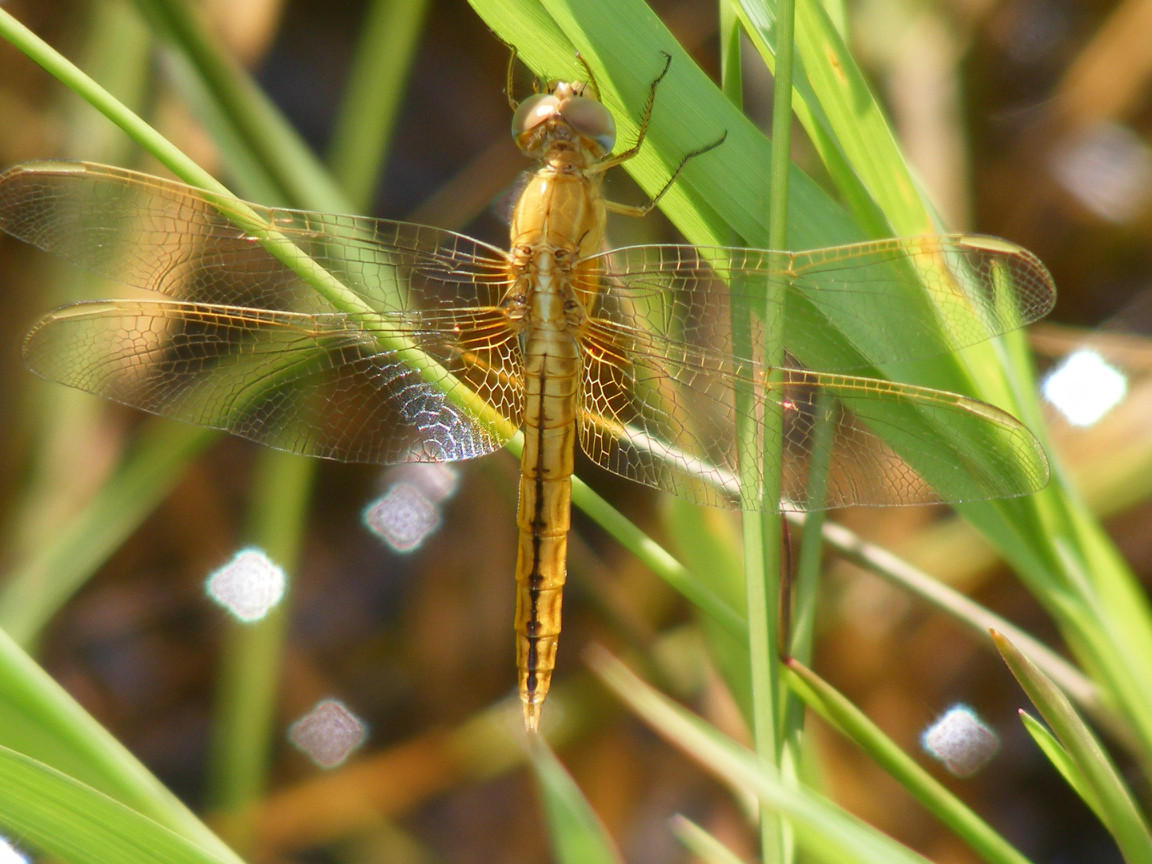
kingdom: Animalia
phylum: Arthropoda
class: Insecta
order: Odonata
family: Libellulidae
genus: Crocothemis
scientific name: Crocothemis sanguinolenta
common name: Little scarlet
